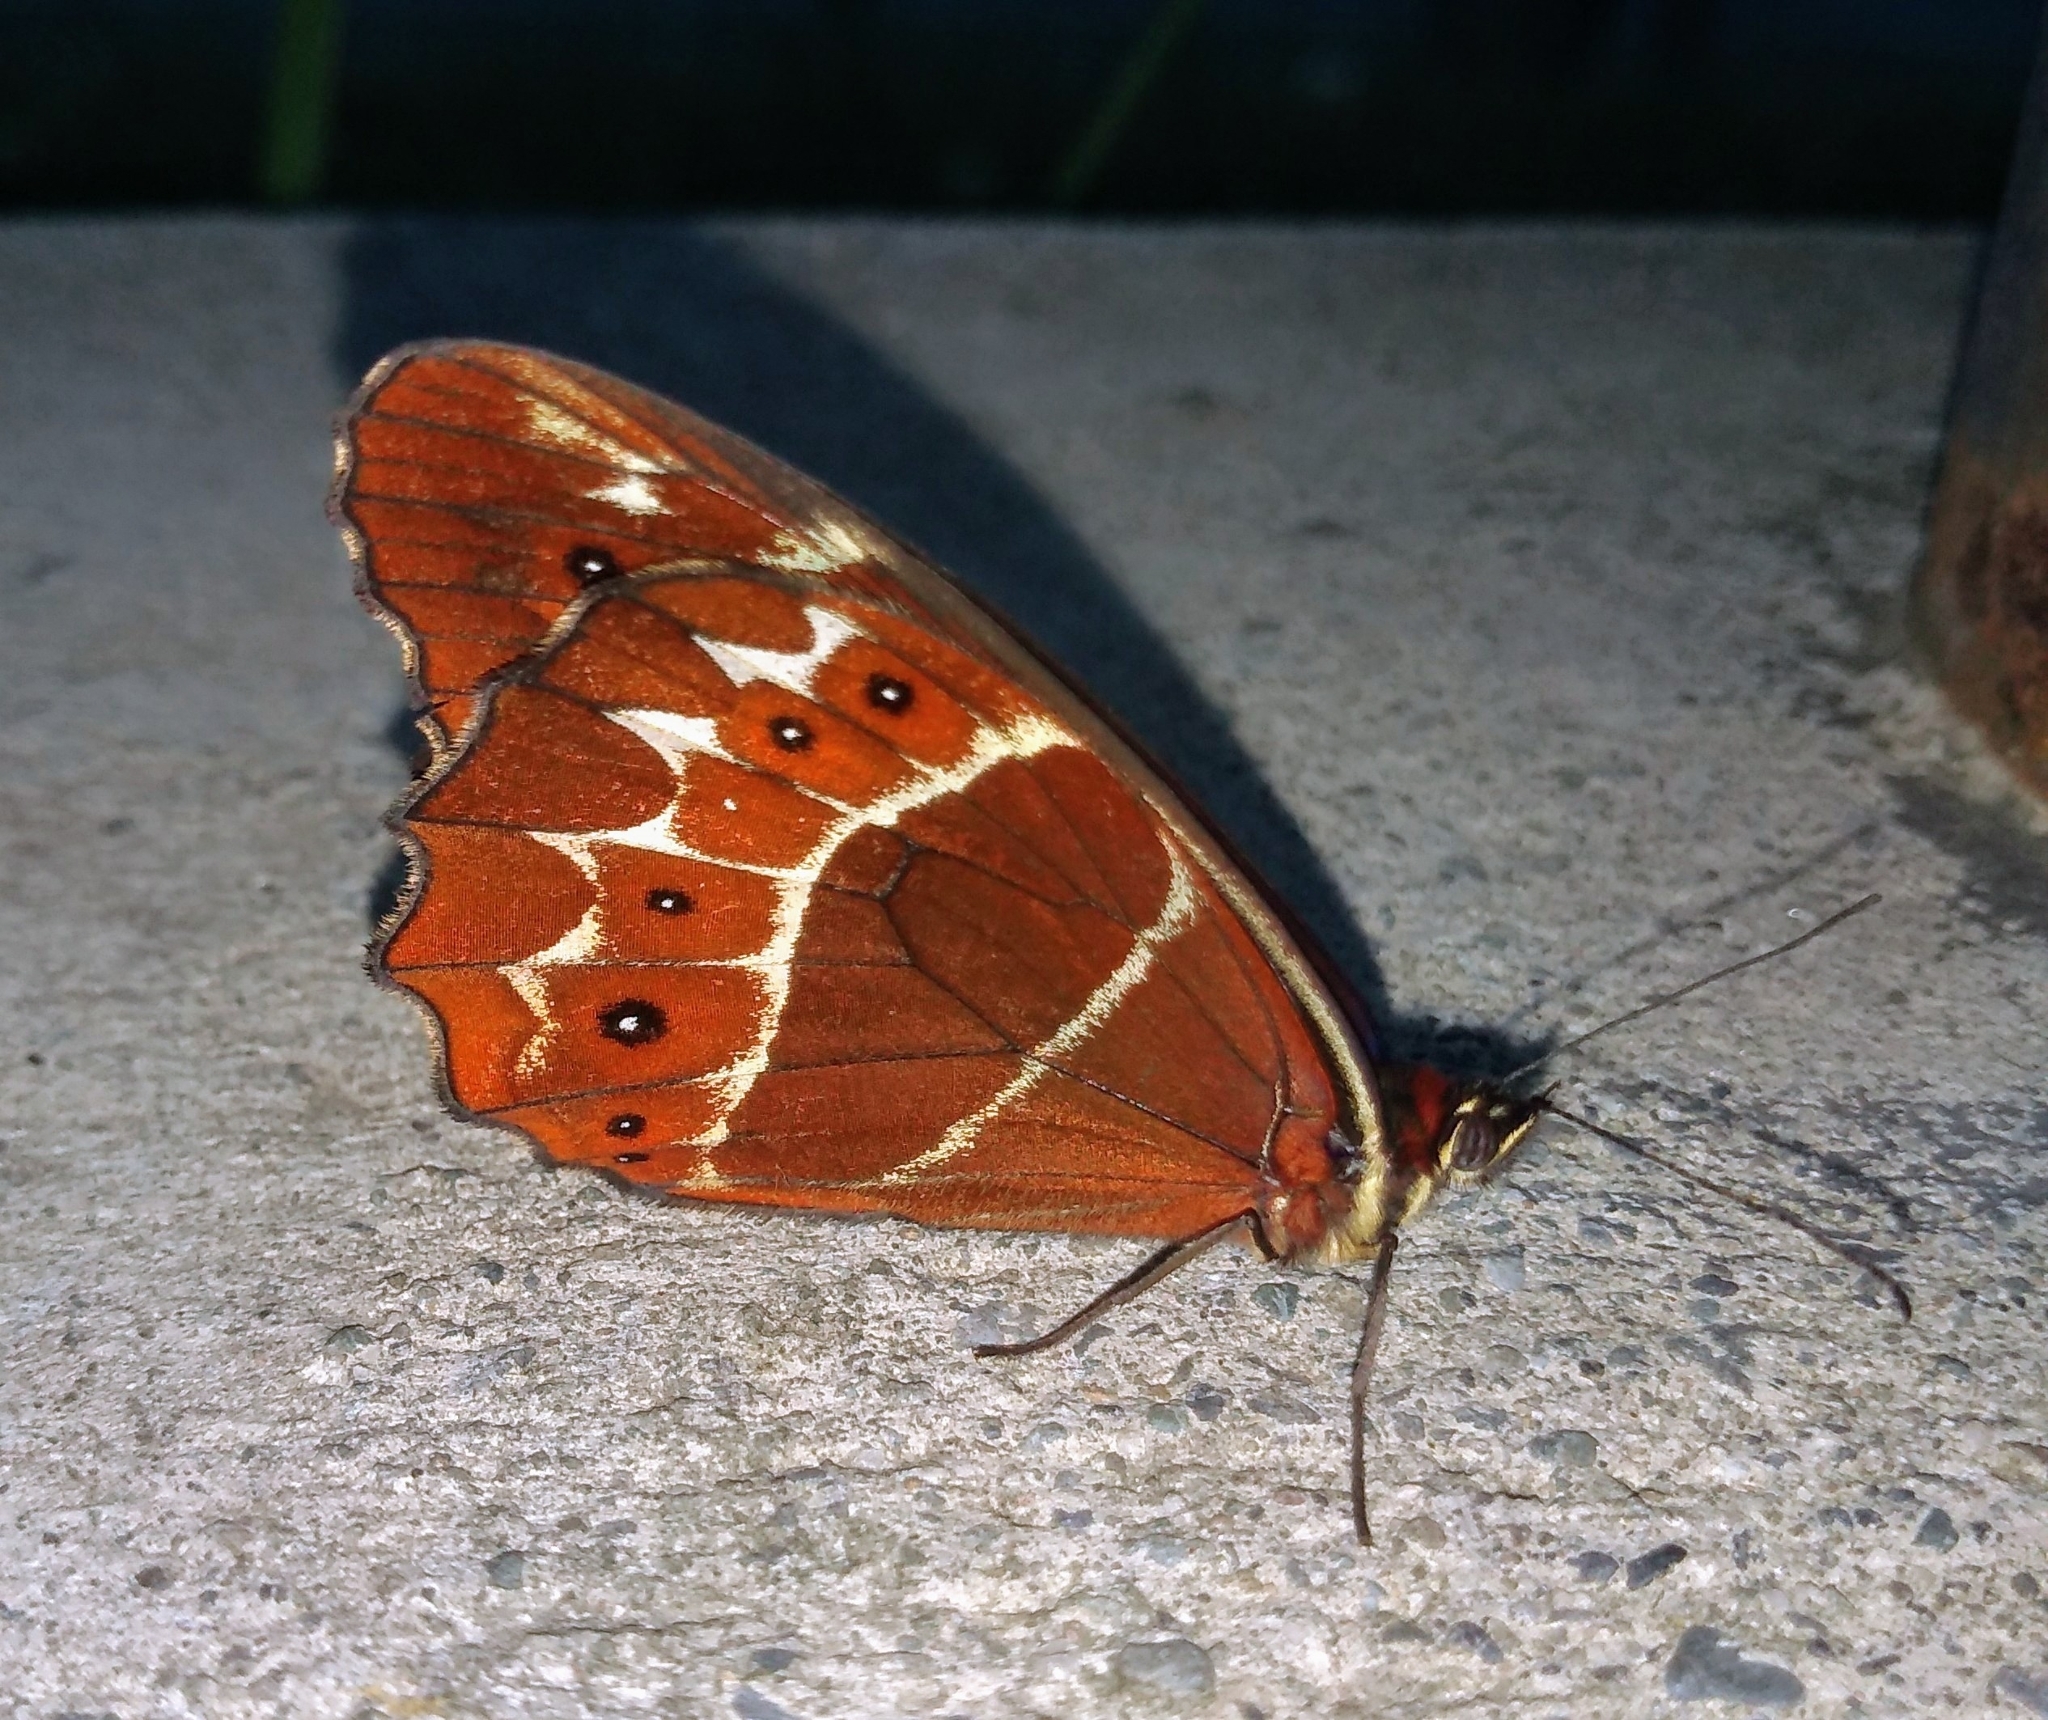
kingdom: Animalia
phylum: Arthropoda
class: Insecta
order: Lepidoptera
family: Nymphalidae
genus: Oxeoschistus
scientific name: Oxeoschistus puerta
